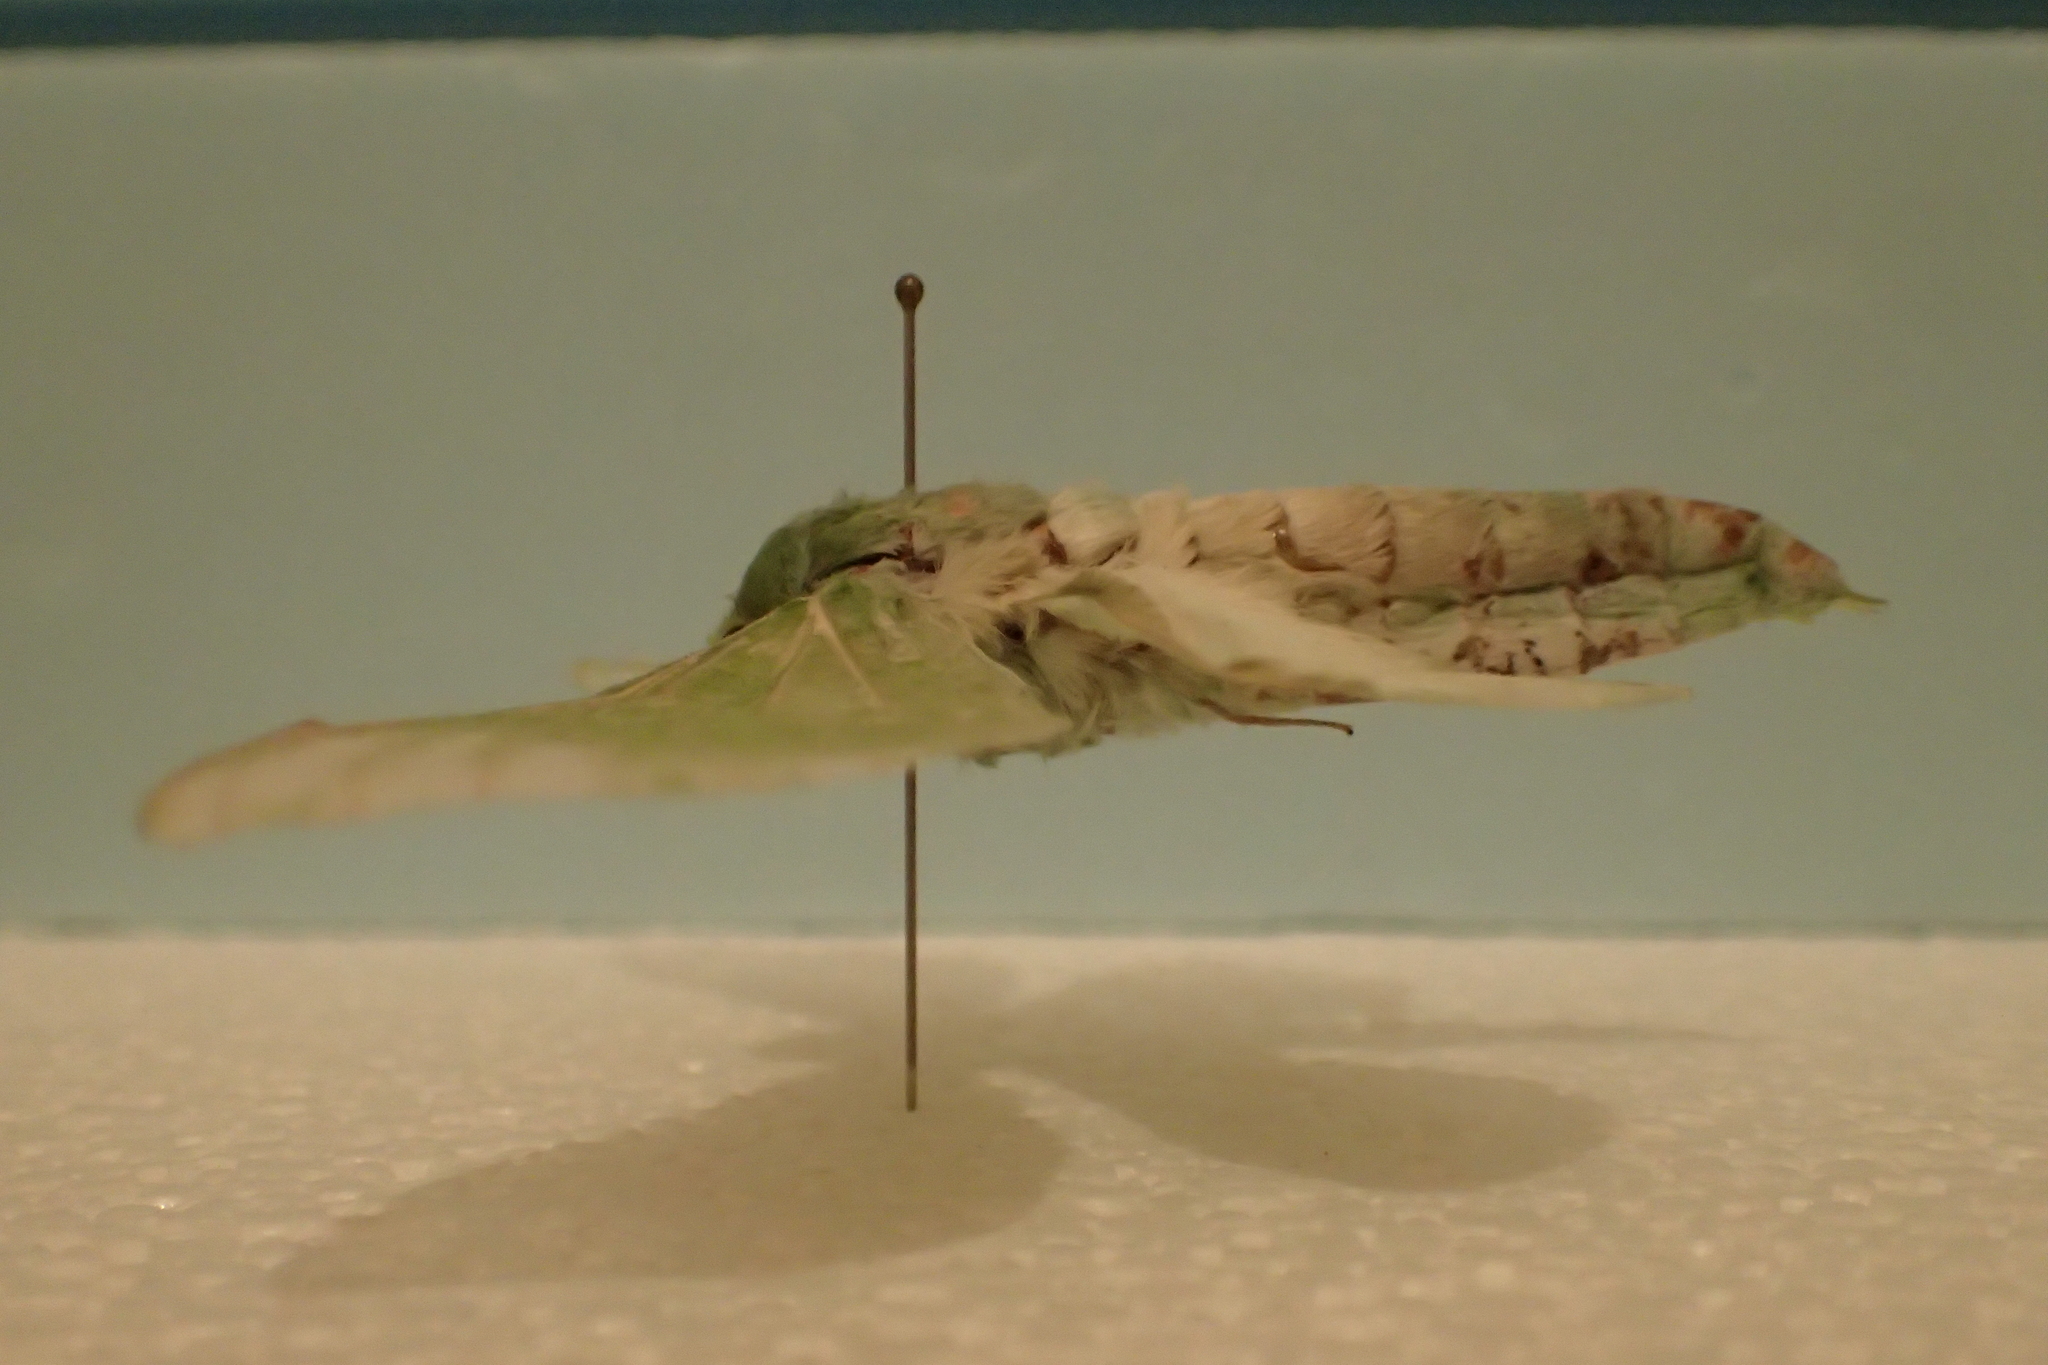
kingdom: Animalia
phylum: Arthropoda
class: Insecta
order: Lepidoptera
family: Hepialidae
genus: Aenetus
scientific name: Aenetus virescens
